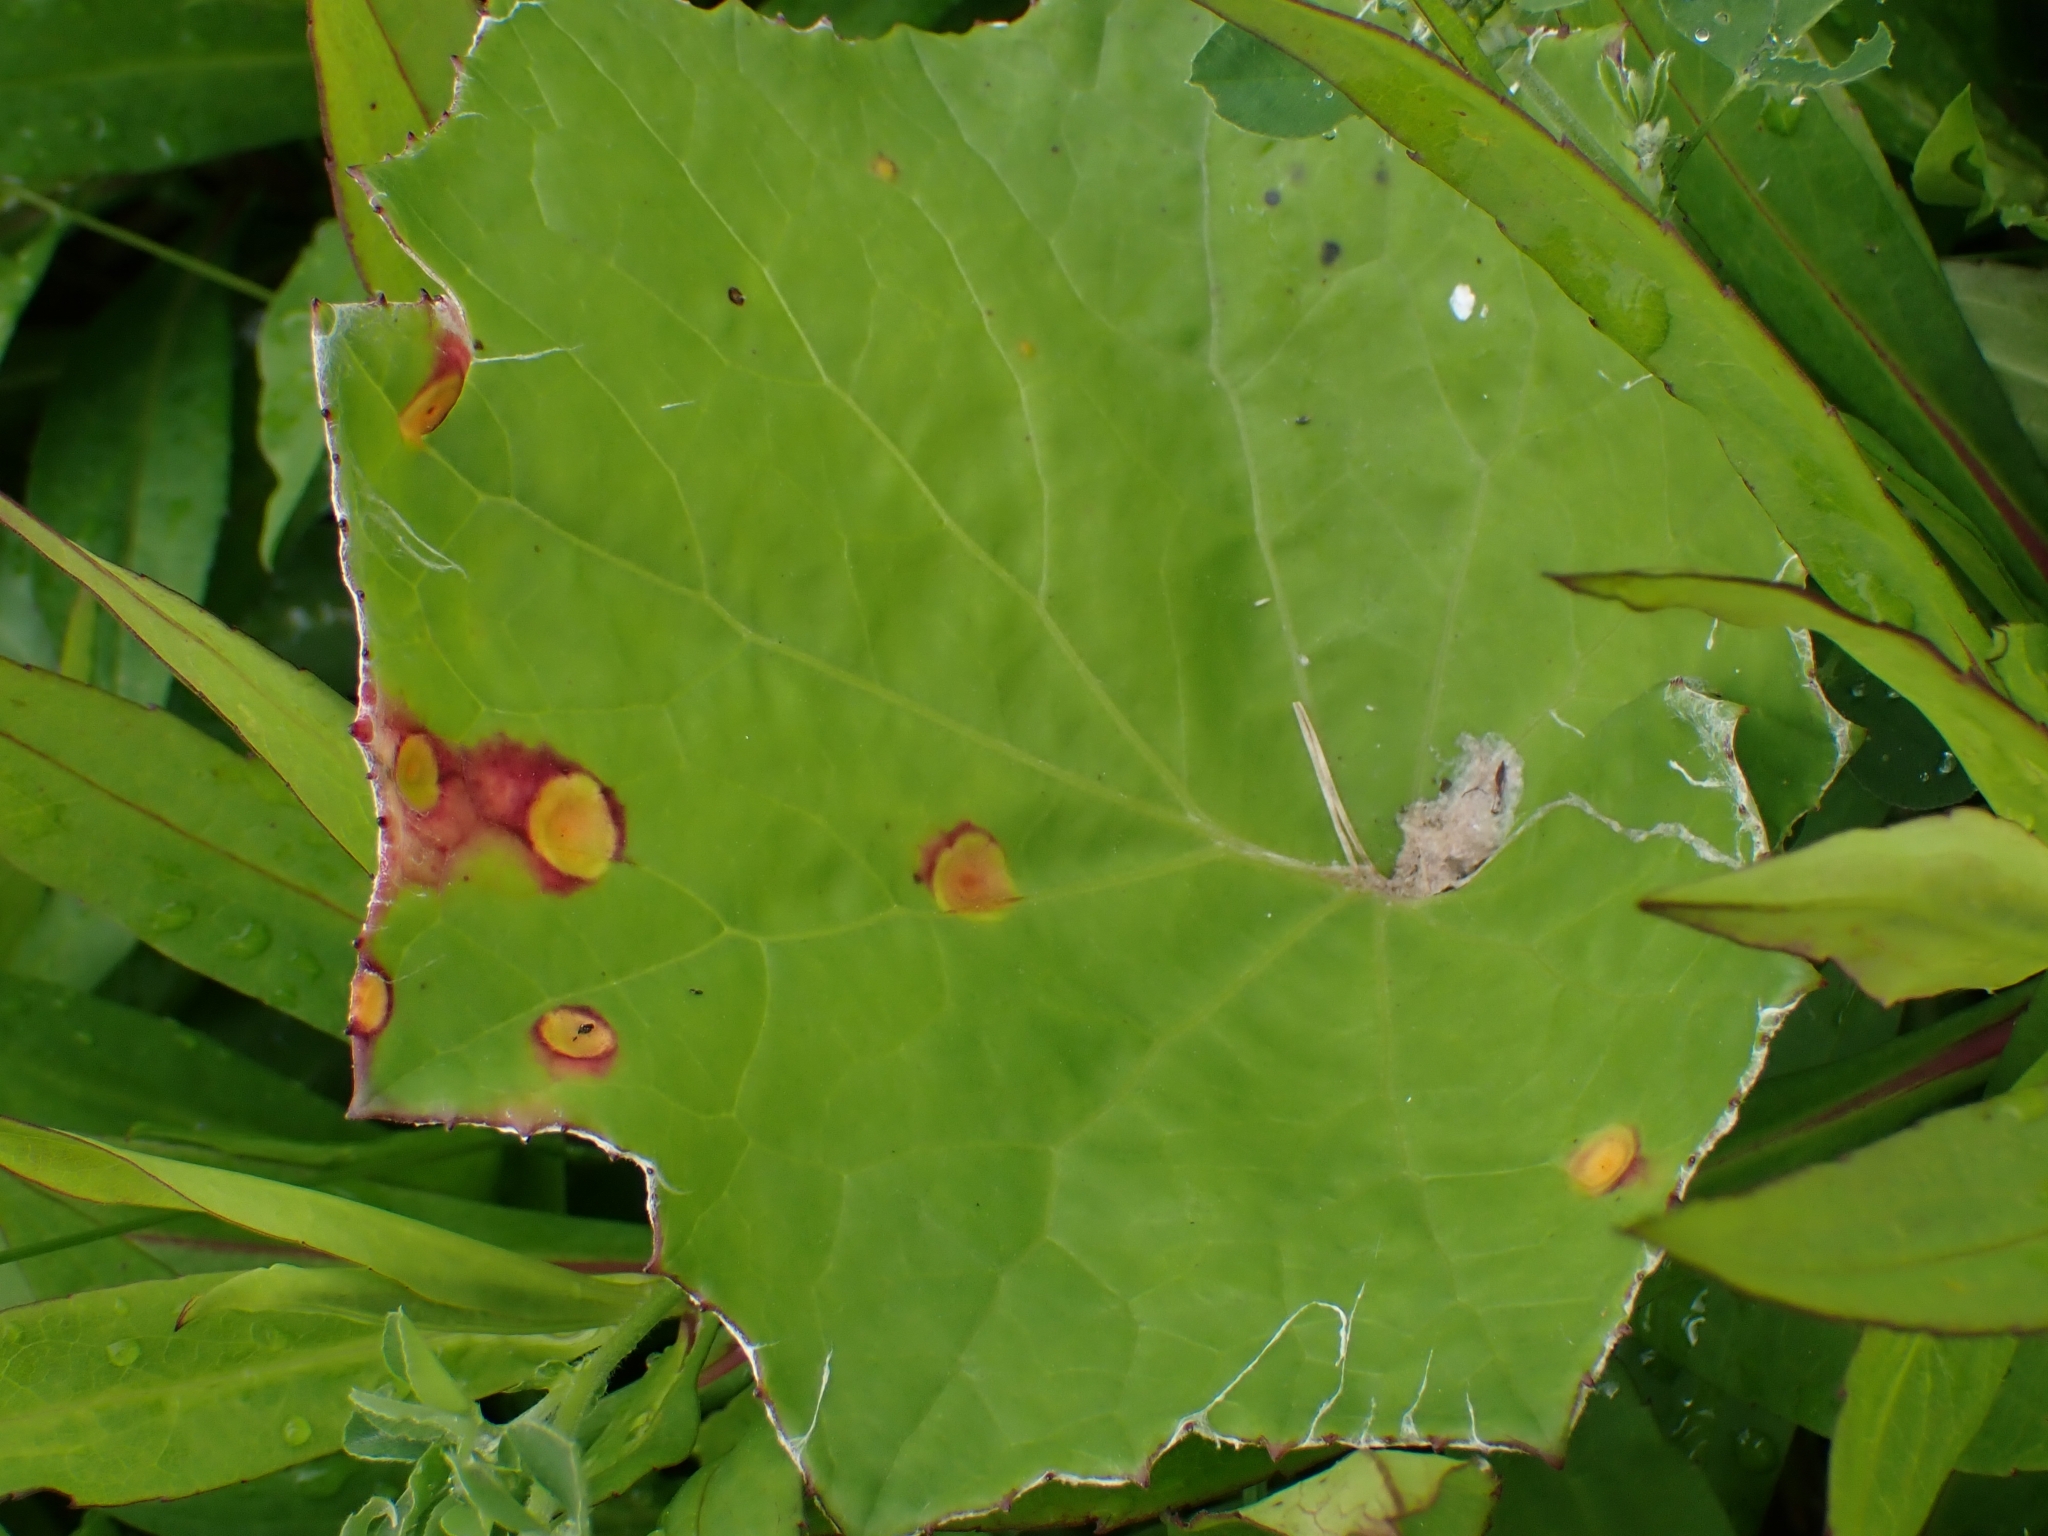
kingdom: Fungi
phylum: Basidiomycota
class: Pucciniomycetes
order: Pucciniales
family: Pucciniaceae
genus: Puccinia
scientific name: Puccinia
